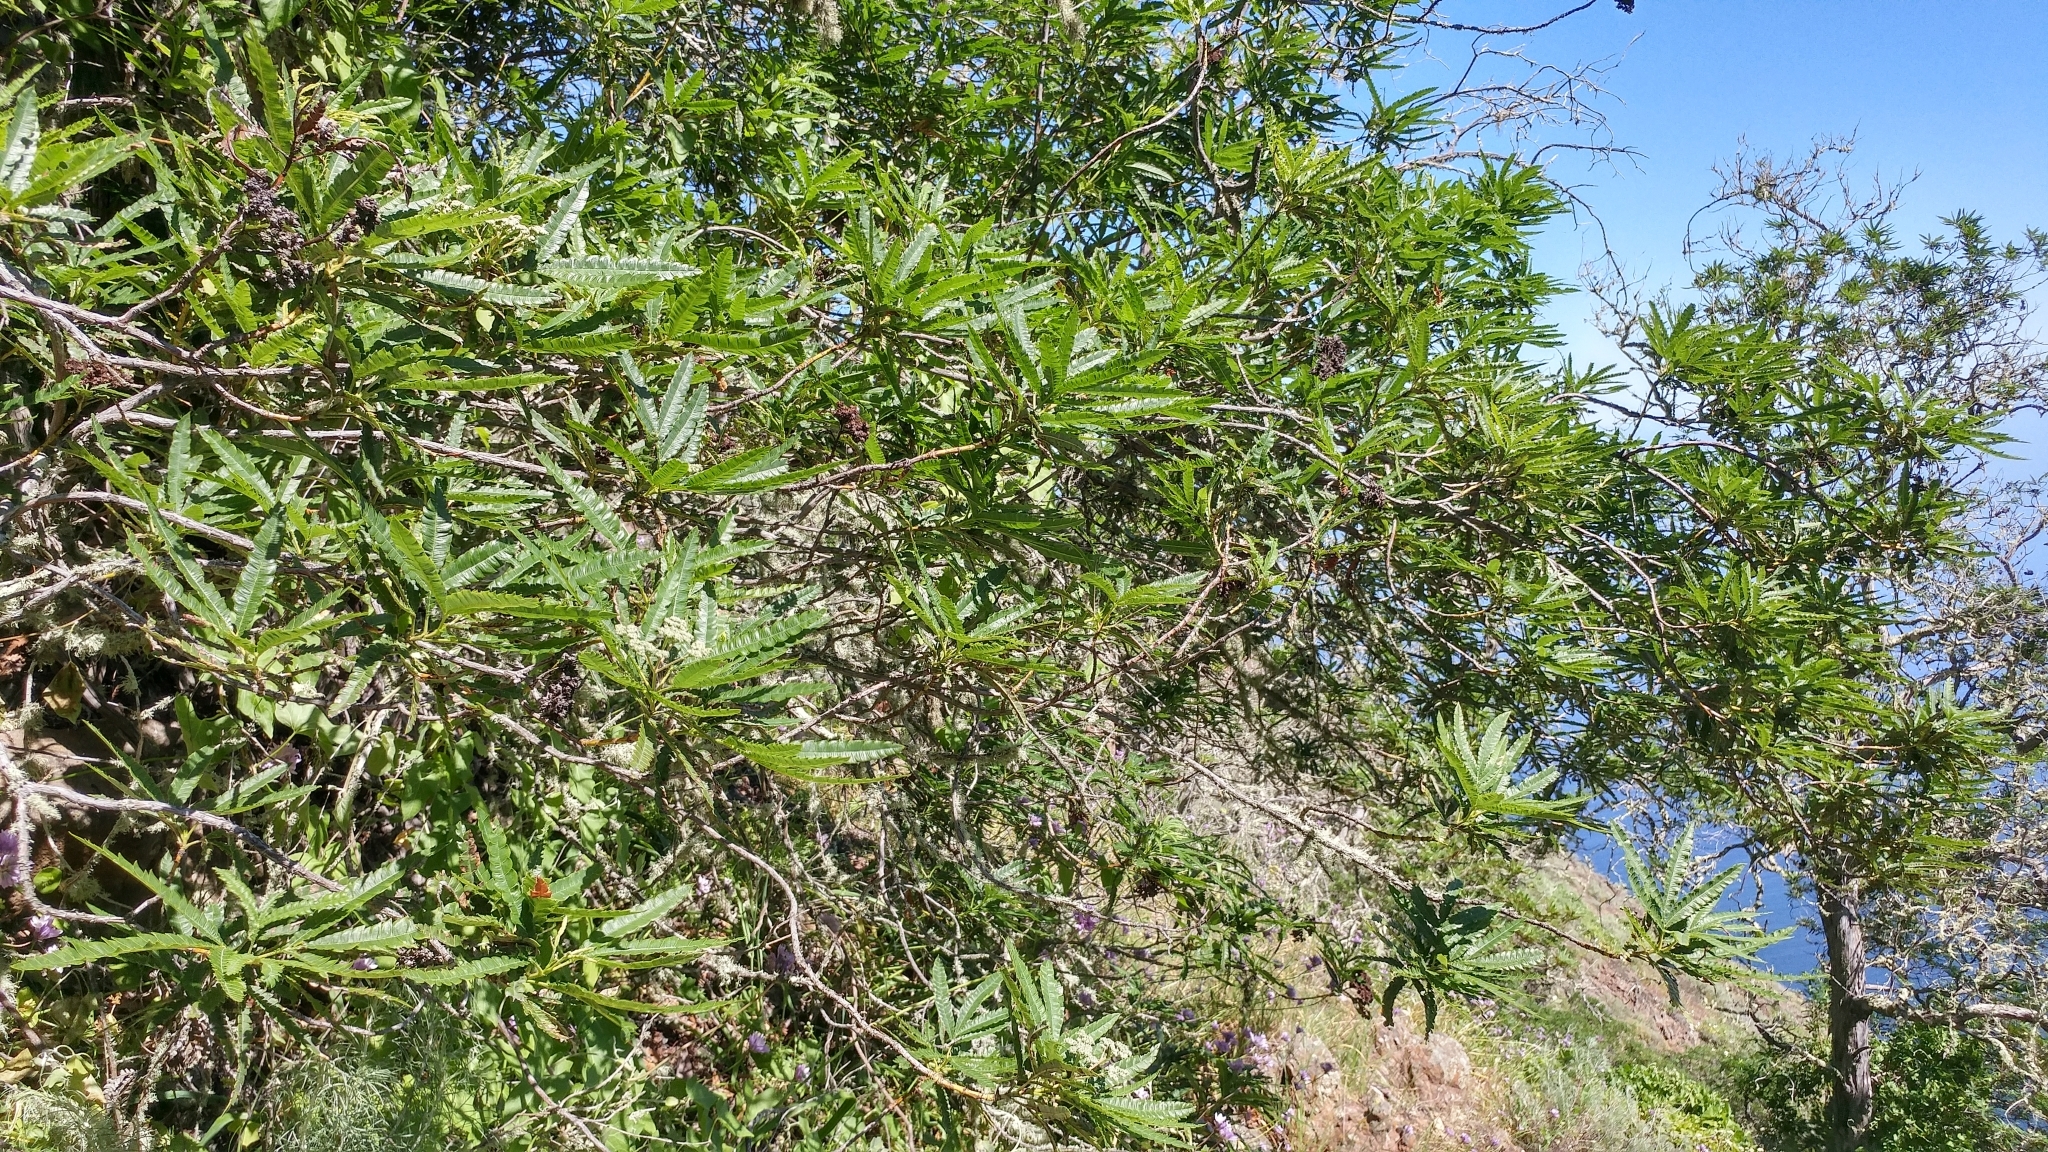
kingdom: Plantae
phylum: Tracheophyta
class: Magnoliopsida
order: Rosales
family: Rosaceae
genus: Lyonothamnus
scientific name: Lyonothamnus floribundus
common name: Catalina ironwood
